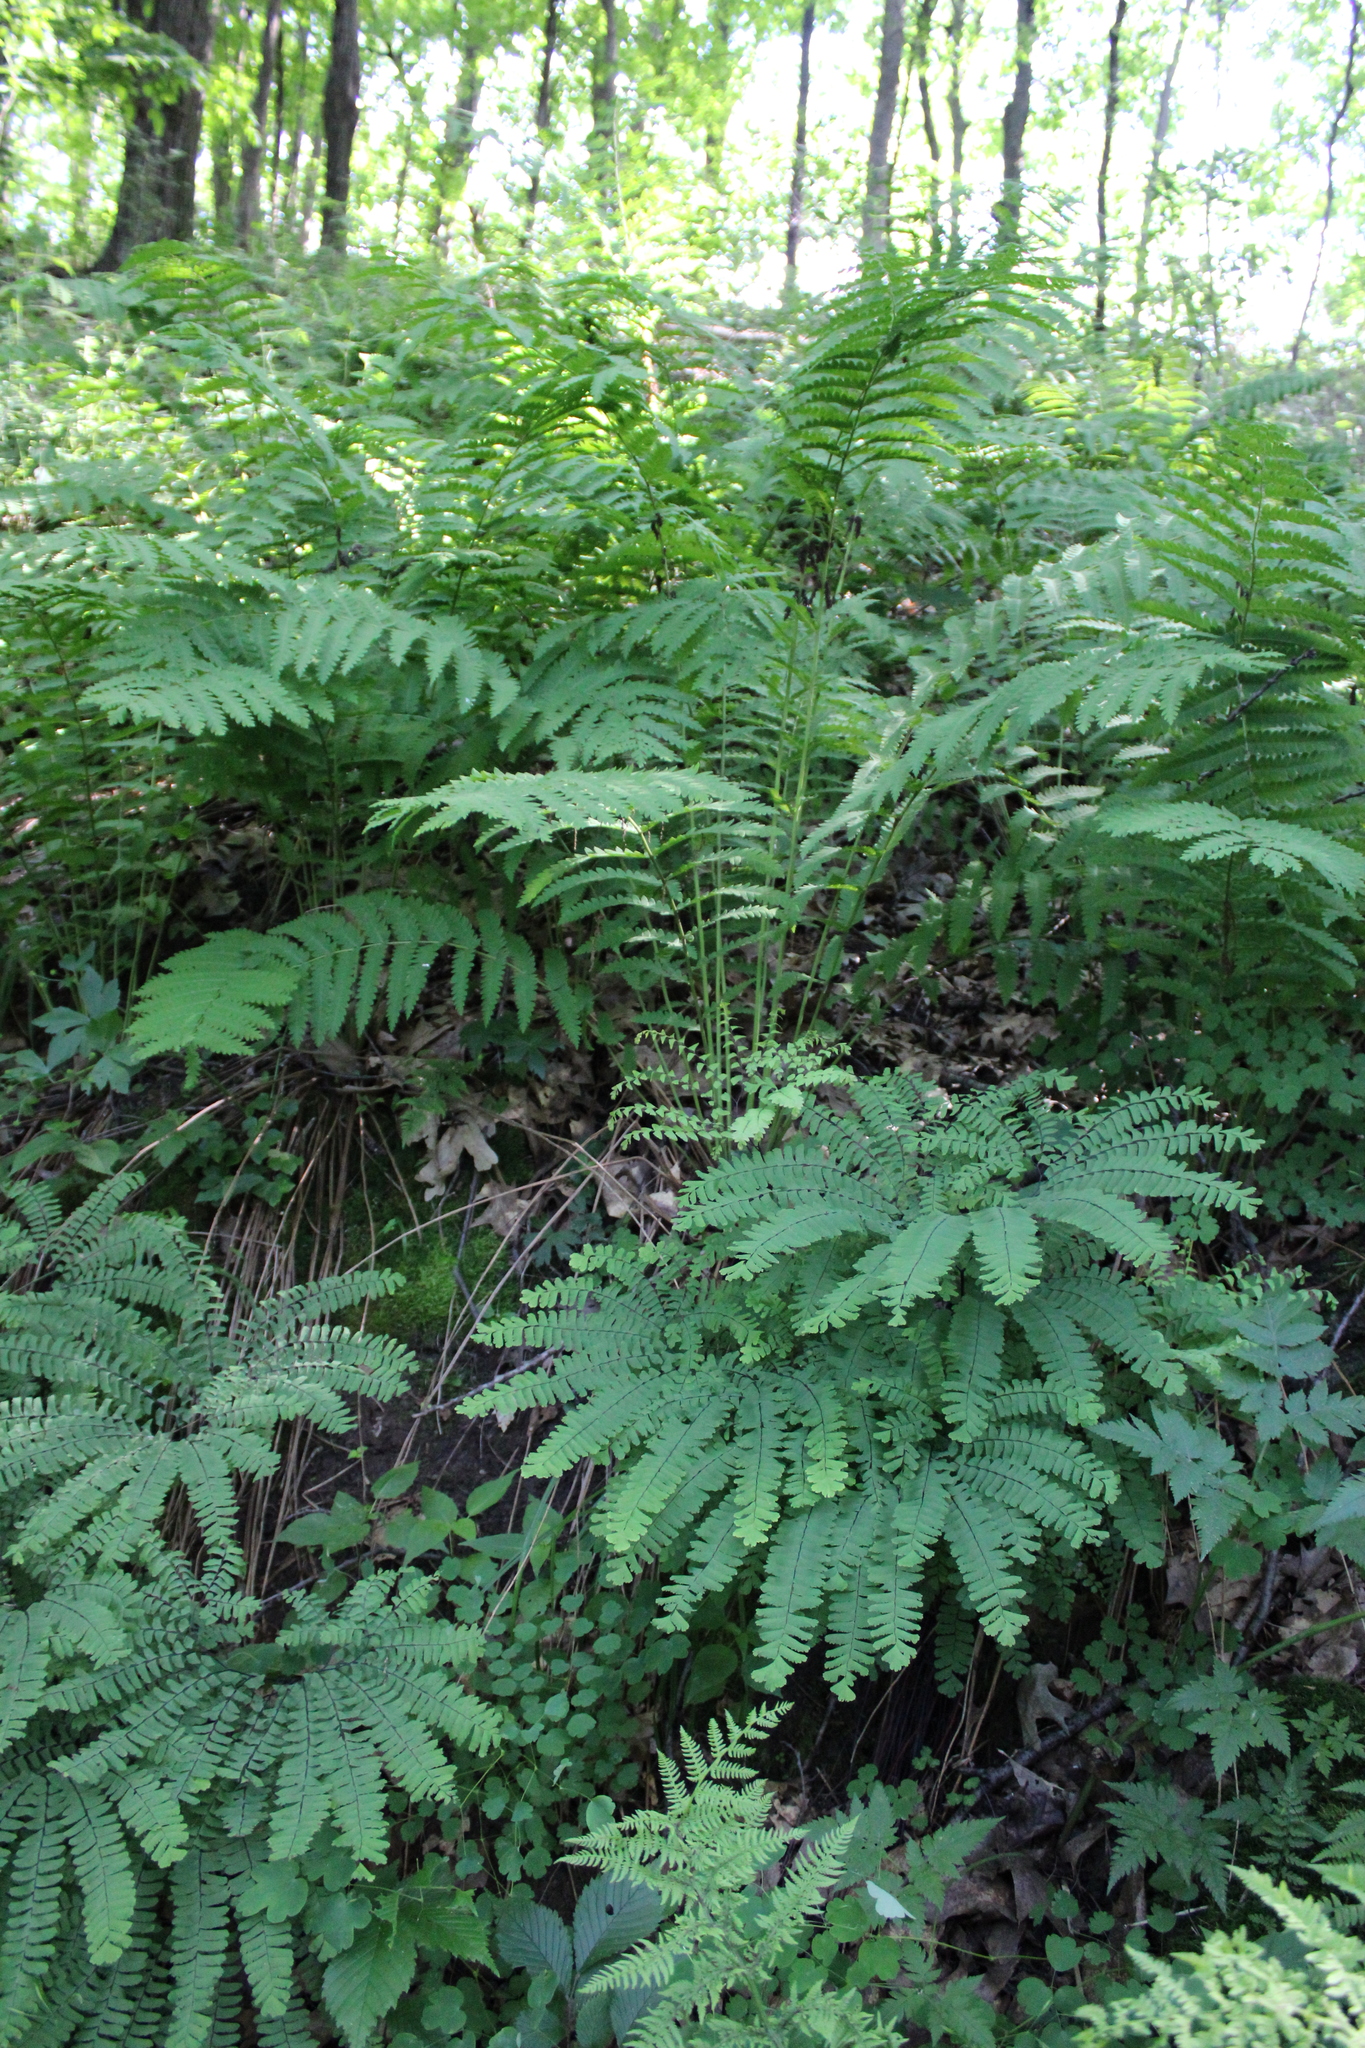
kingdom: Plantae
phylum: Tracheophyta
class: Polypodiopsida
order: Osmundales
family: Osmundaceae
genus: Claytosmunda
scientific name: Claytosmunda claytoniana
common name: Clayton's fern
